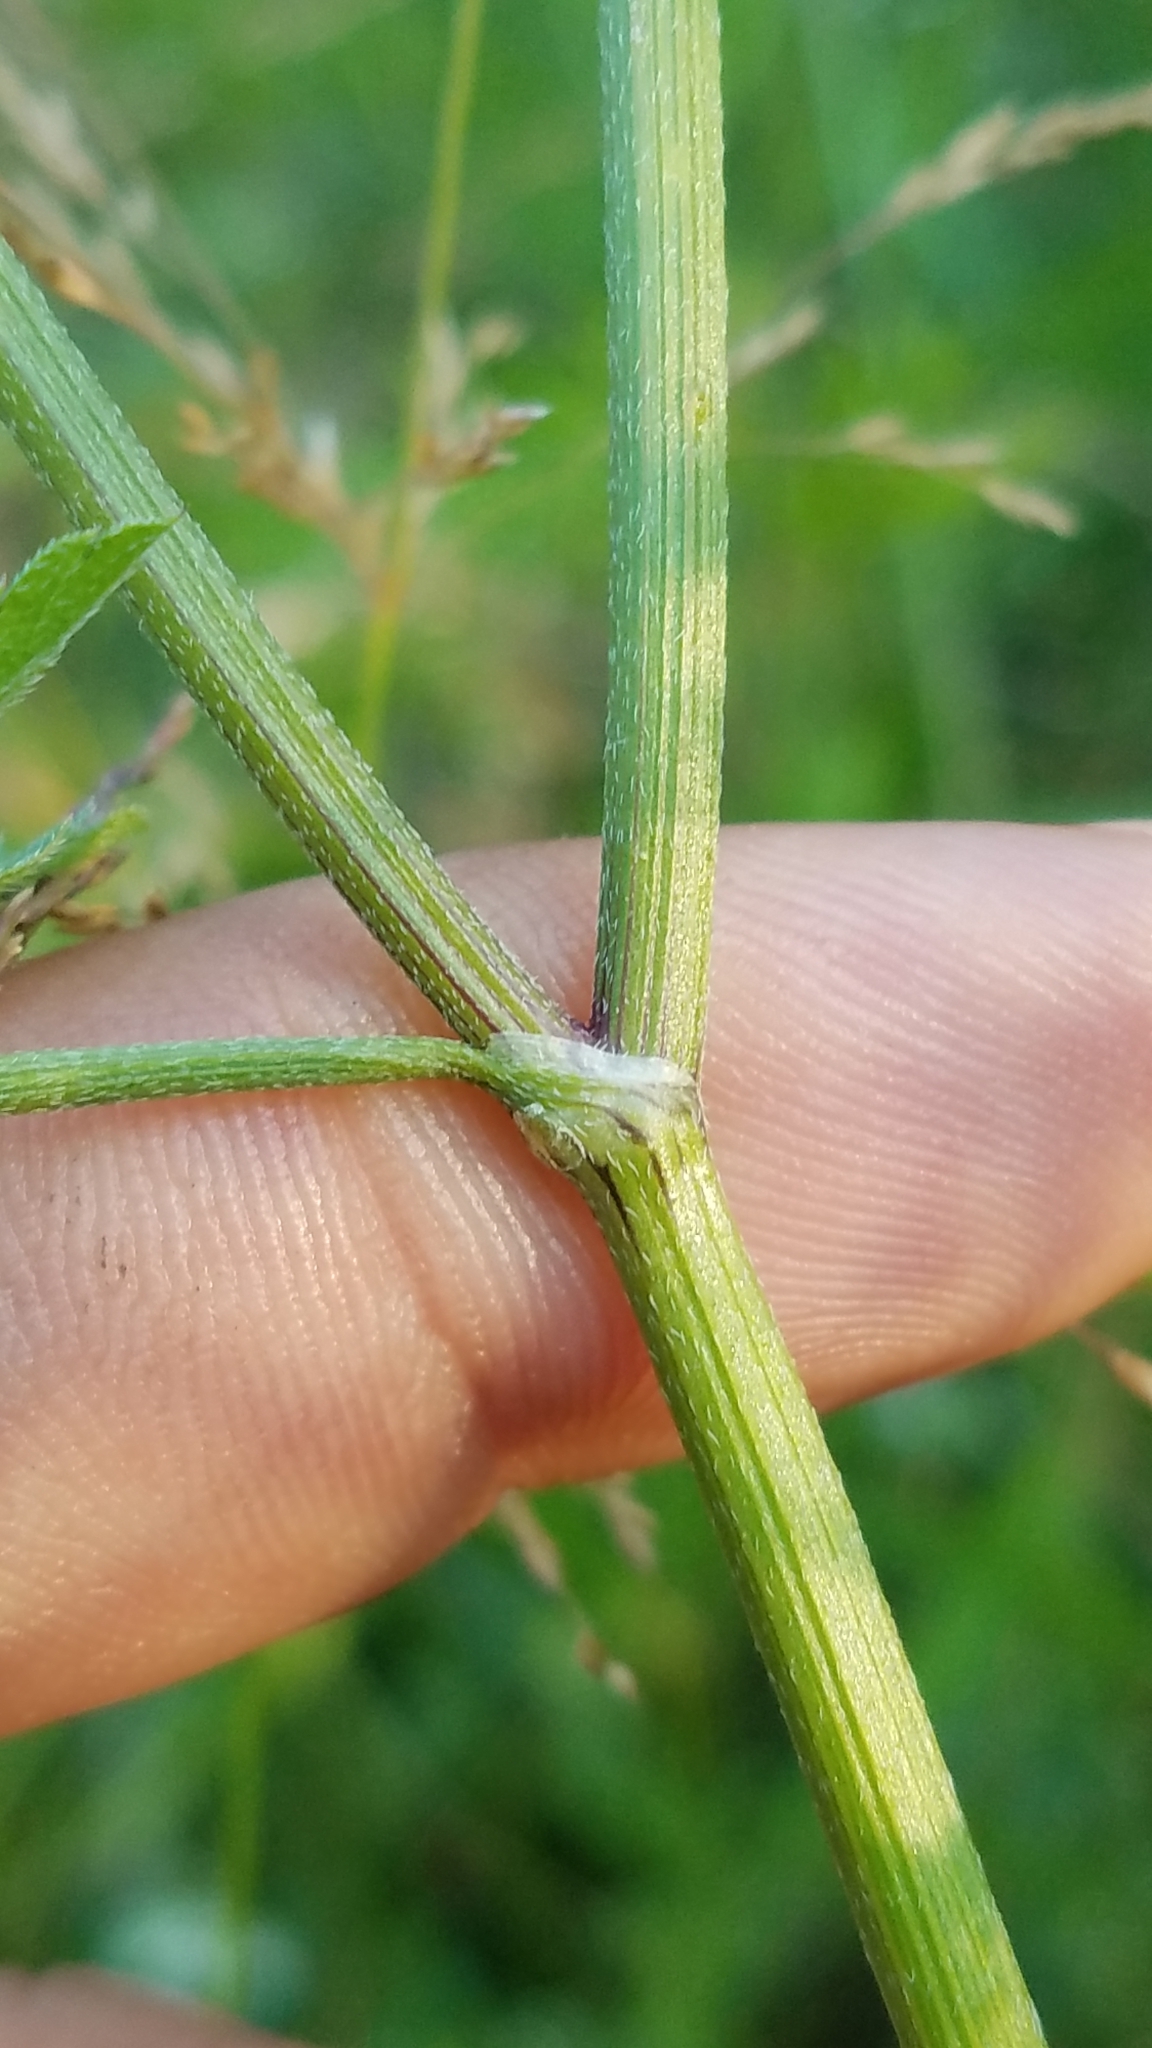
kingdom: Plantae
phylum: Tracheophyta
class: Magnoliopsida
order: Apiales
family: Apiaceae
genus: Torilis
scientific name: Torilis japonica
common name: Upright hedge-parsley
